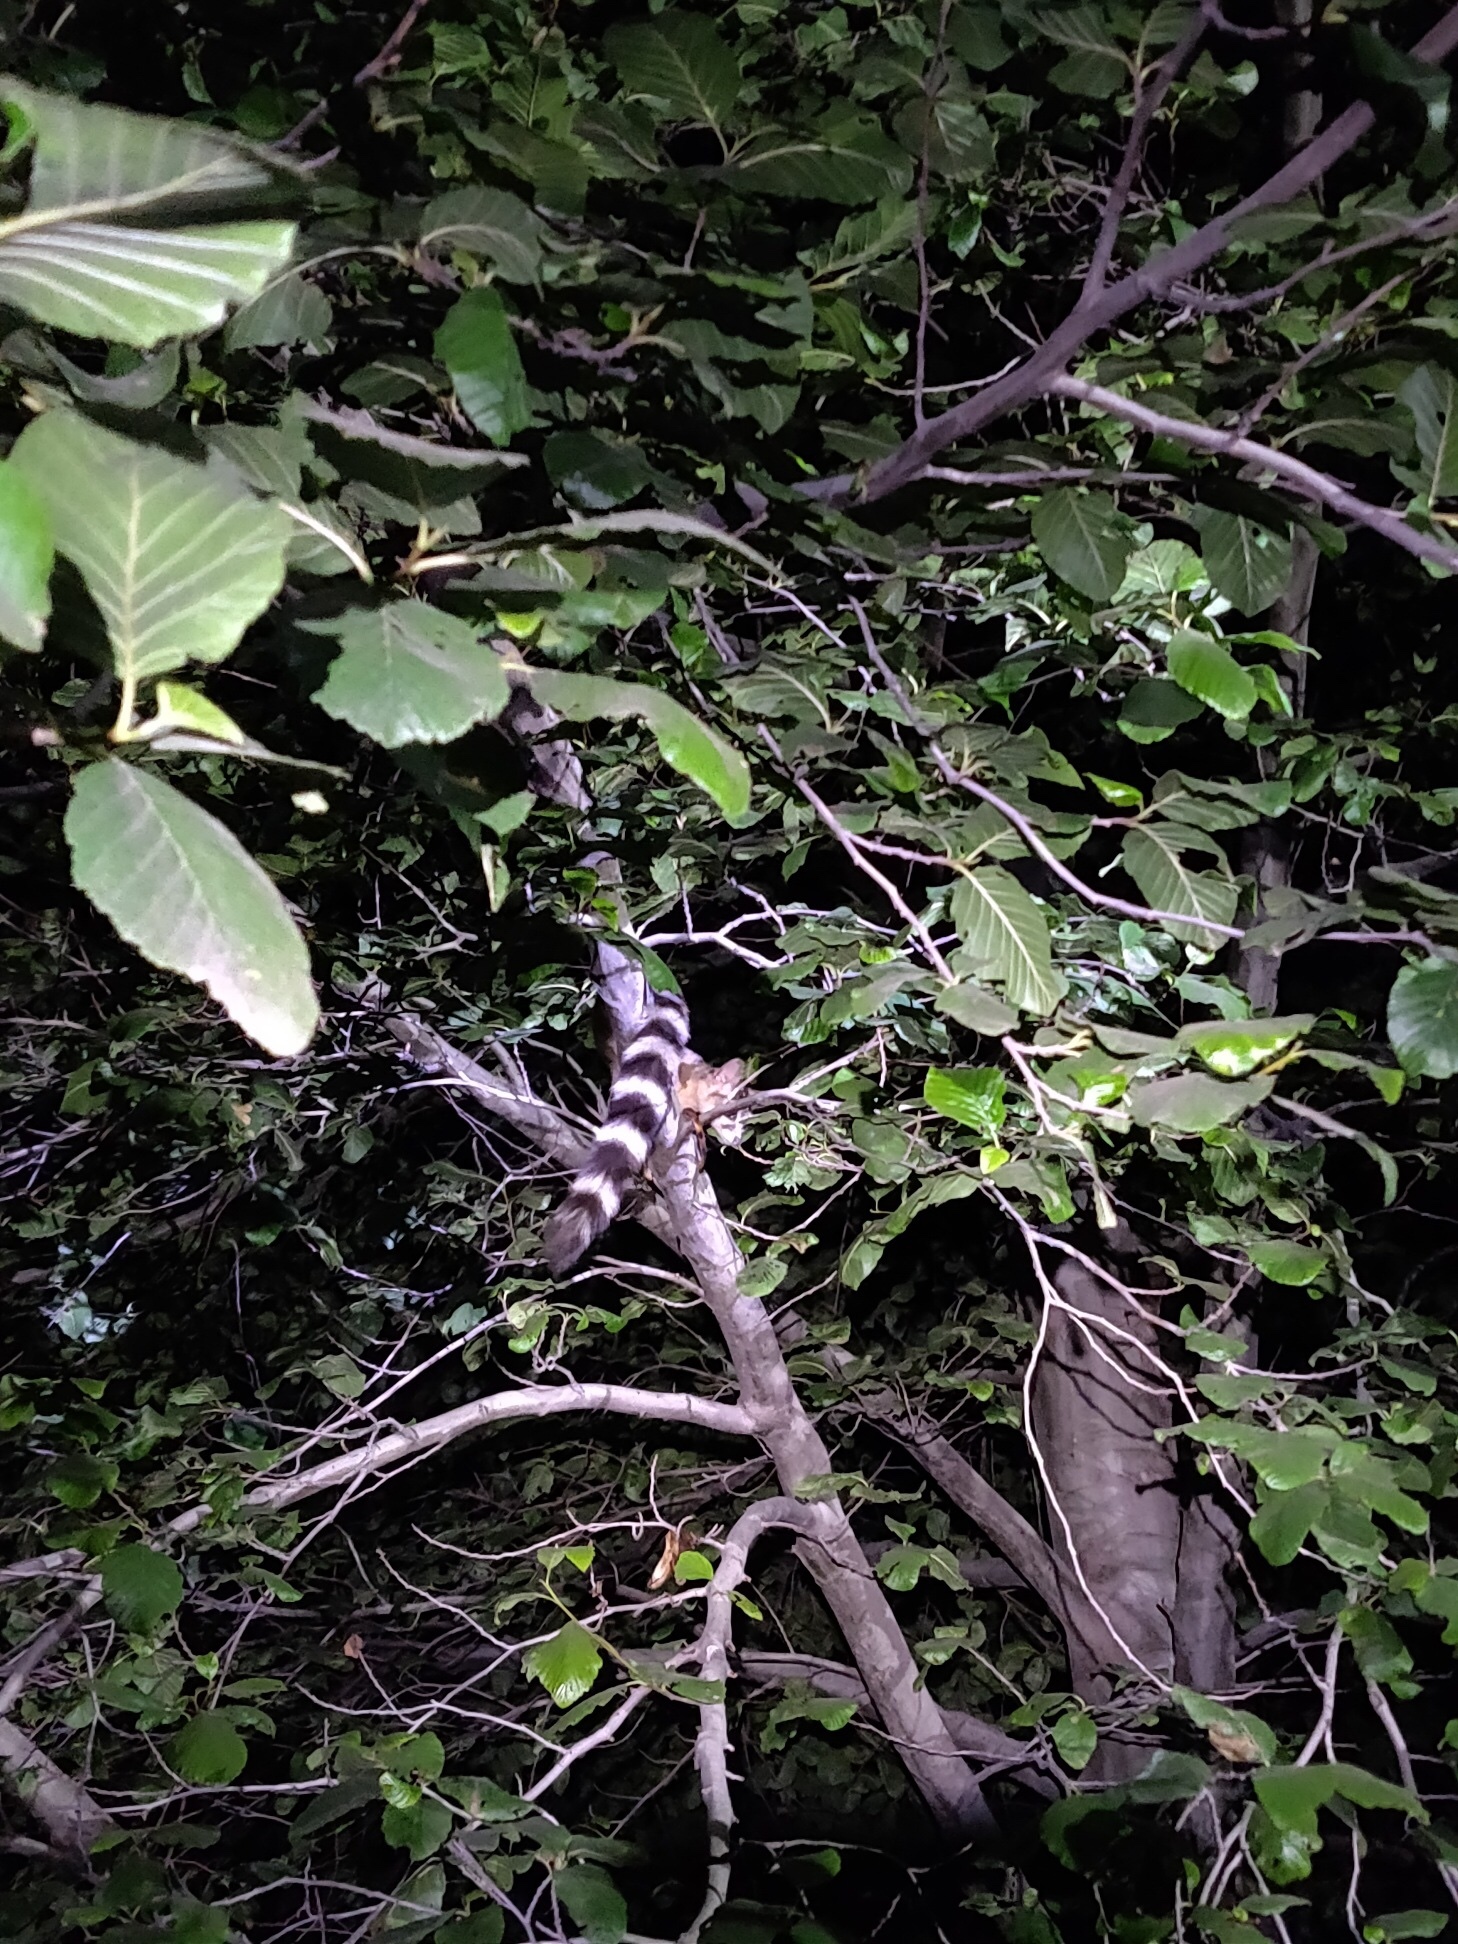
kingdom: Animalia
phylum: Chordata
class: Mammalia
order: Carnivora
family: Procyonidae
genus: Bassariscus
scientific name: Bassariscus astutus
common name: Ringtail
